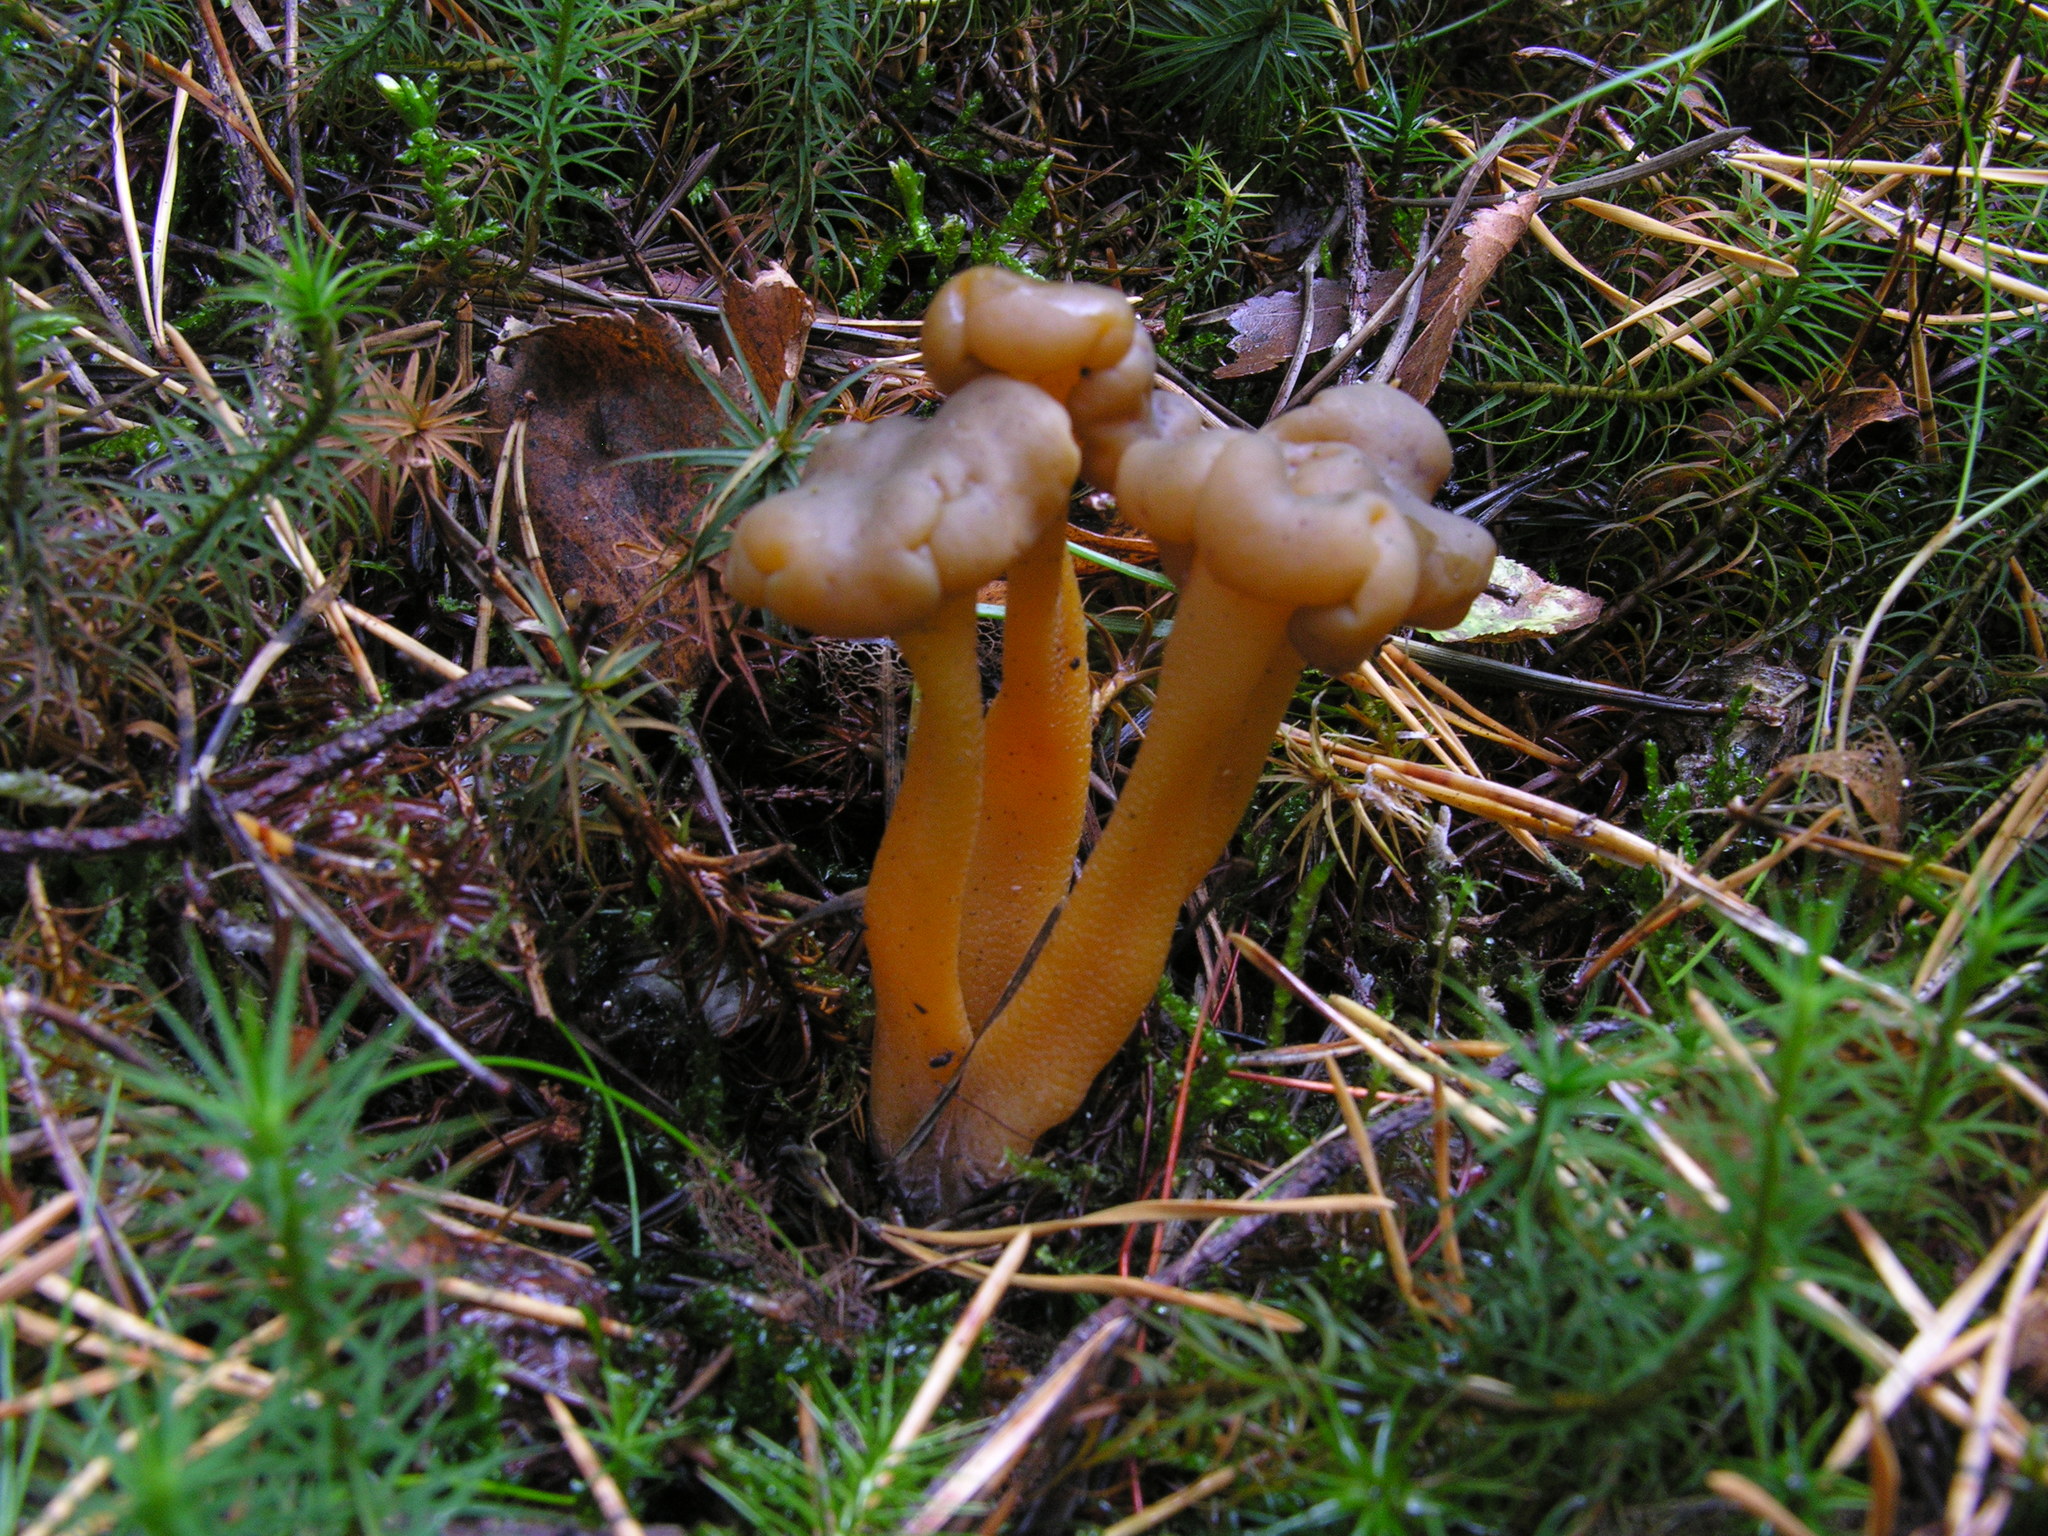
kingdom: Fungi
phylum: Ascomycota
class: Leotiomycetes
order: Leotiales
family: Leotiaceae
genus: Leotia
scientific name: Leotia lubrica
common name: Jellybaby
